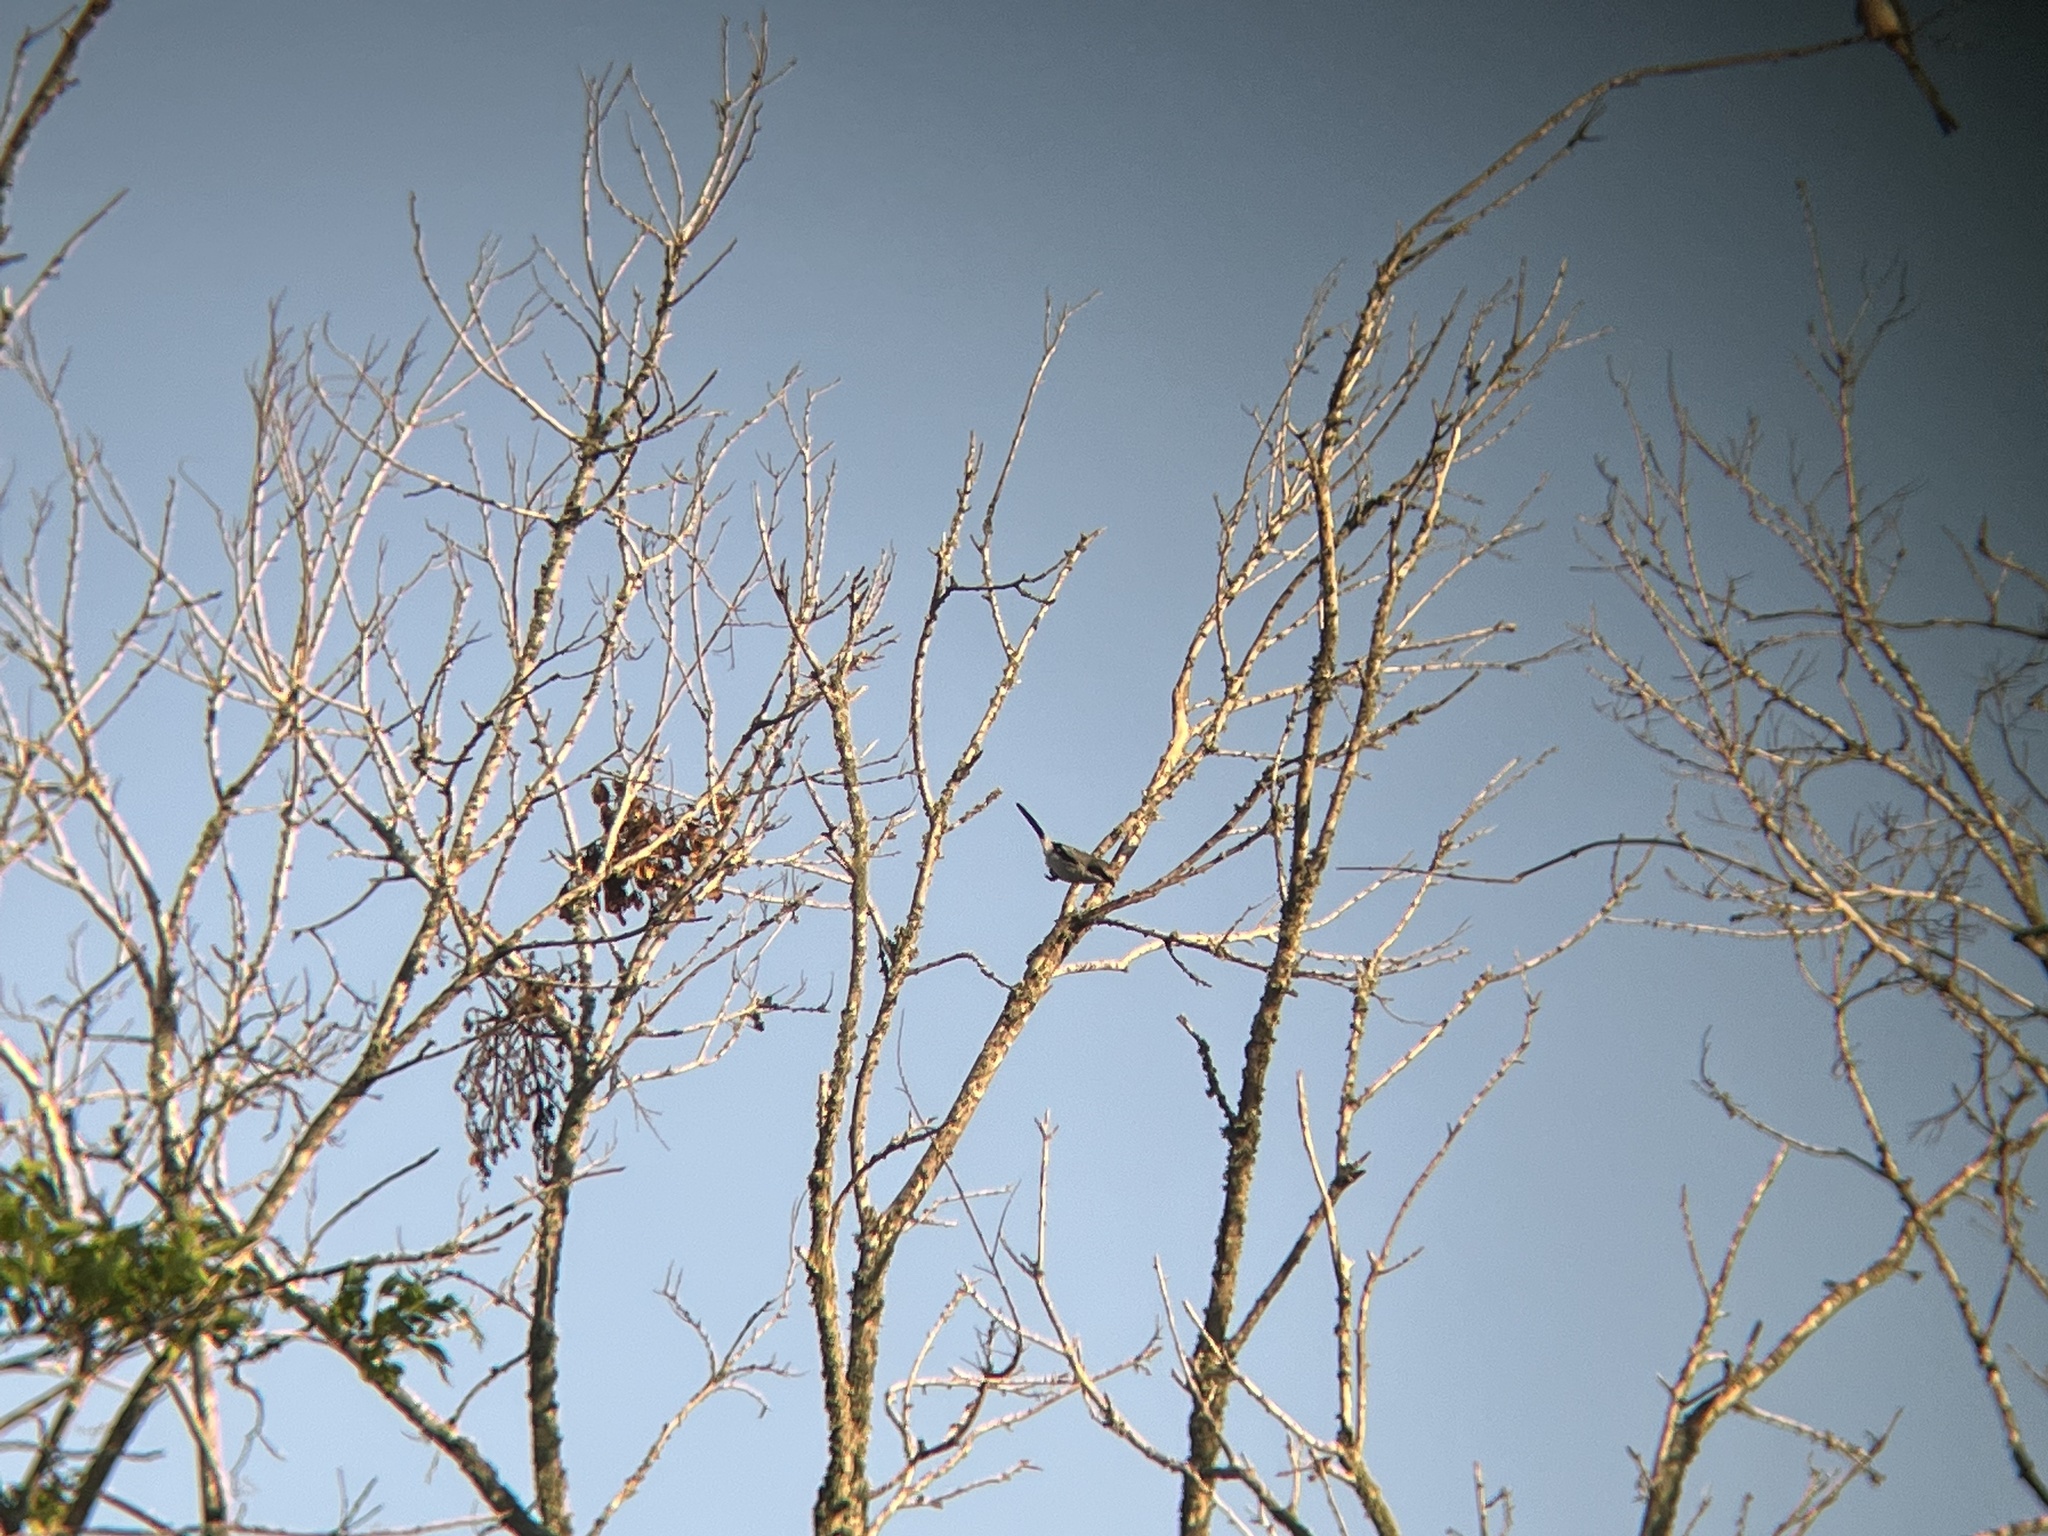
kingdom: Animalia
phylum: Chordata
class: Aves
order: Passeriformes
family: Laniidae
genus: Lanius
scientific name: Lanius ludovicianus
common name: Loggerhead shrike
